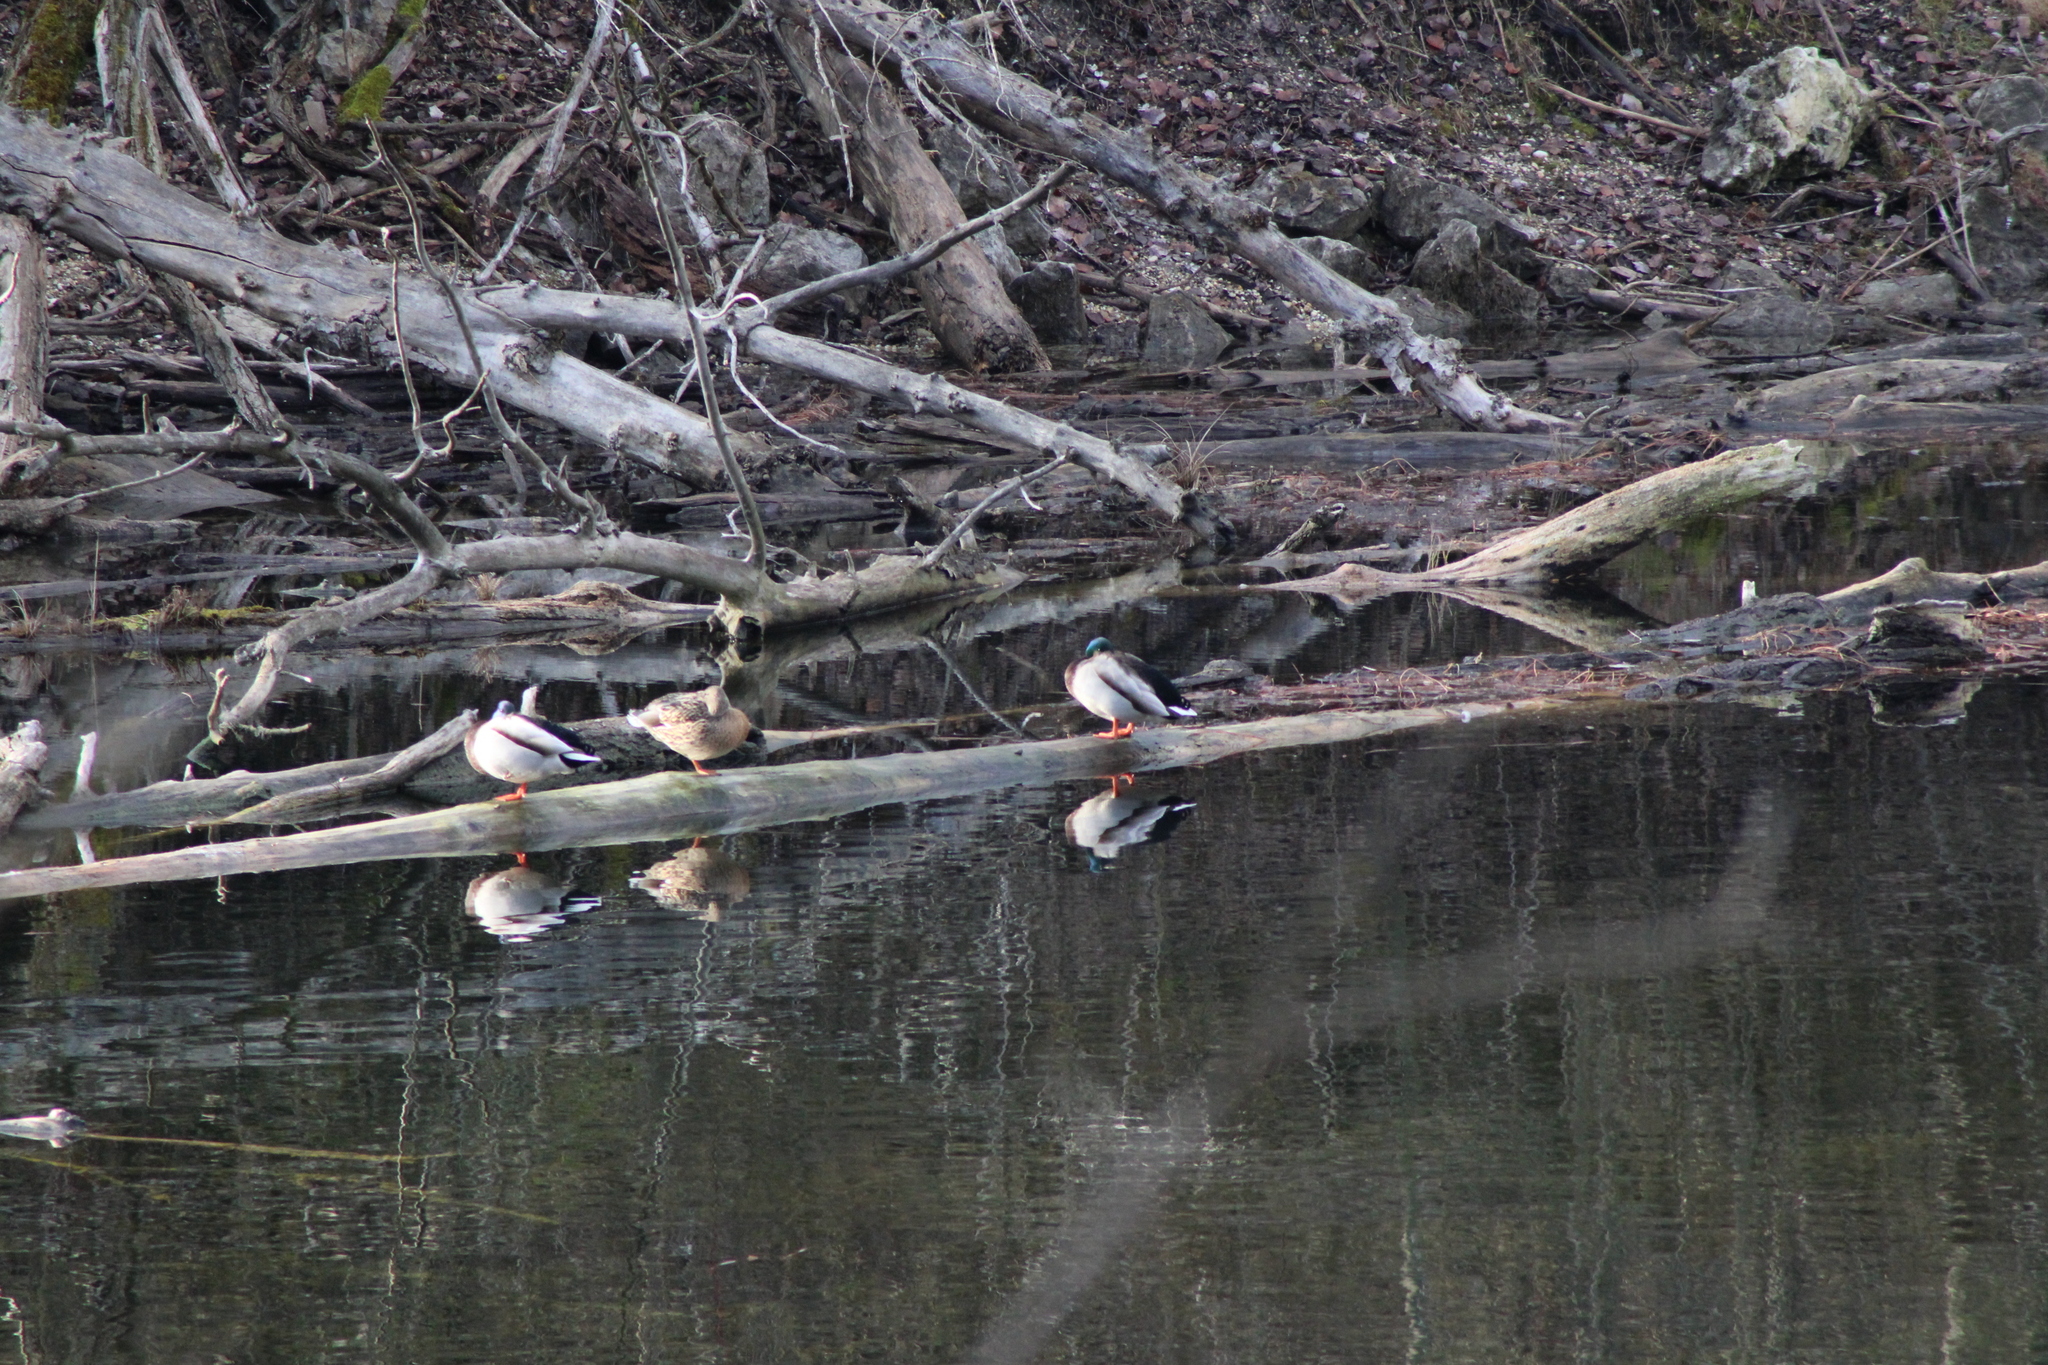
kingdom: Animalia
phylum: Chordata
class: Aves
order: Anseriformes
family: Anatidae
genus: Anas
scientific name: Anas platyrhynchos
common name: Mallard
